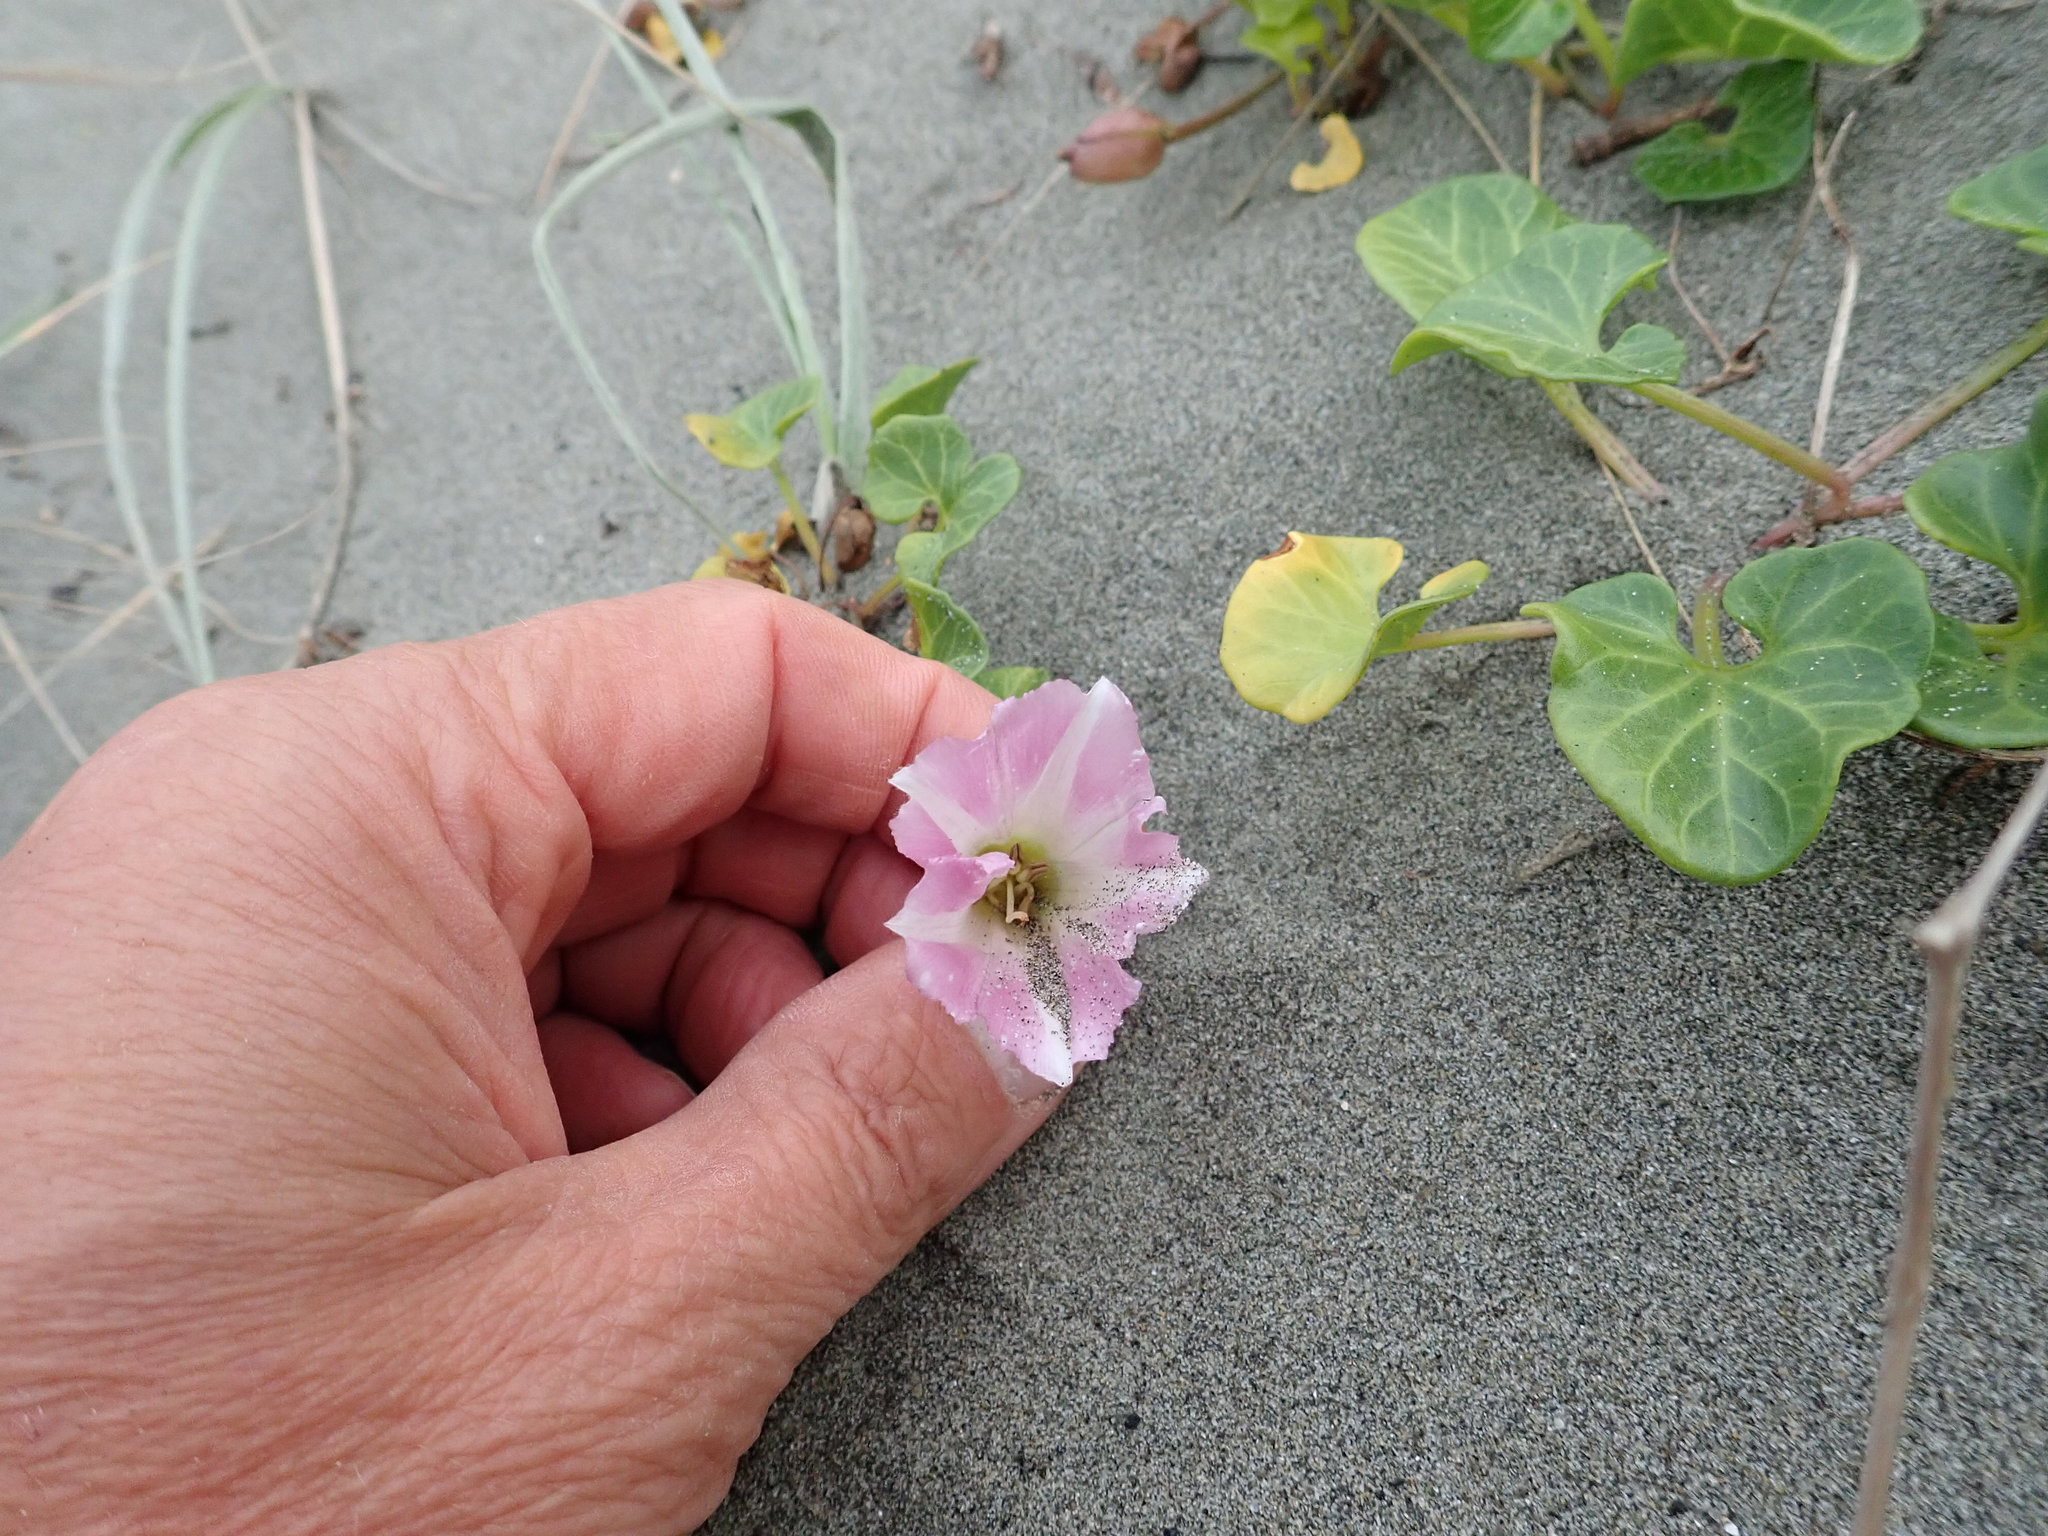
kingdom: Plantae
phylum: Tracheophyta
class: Magnoliopsida
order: Solanales
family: Convolvulaceae
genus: Calystegia
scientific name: Calystegia soldanella
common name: Sea bindweed
